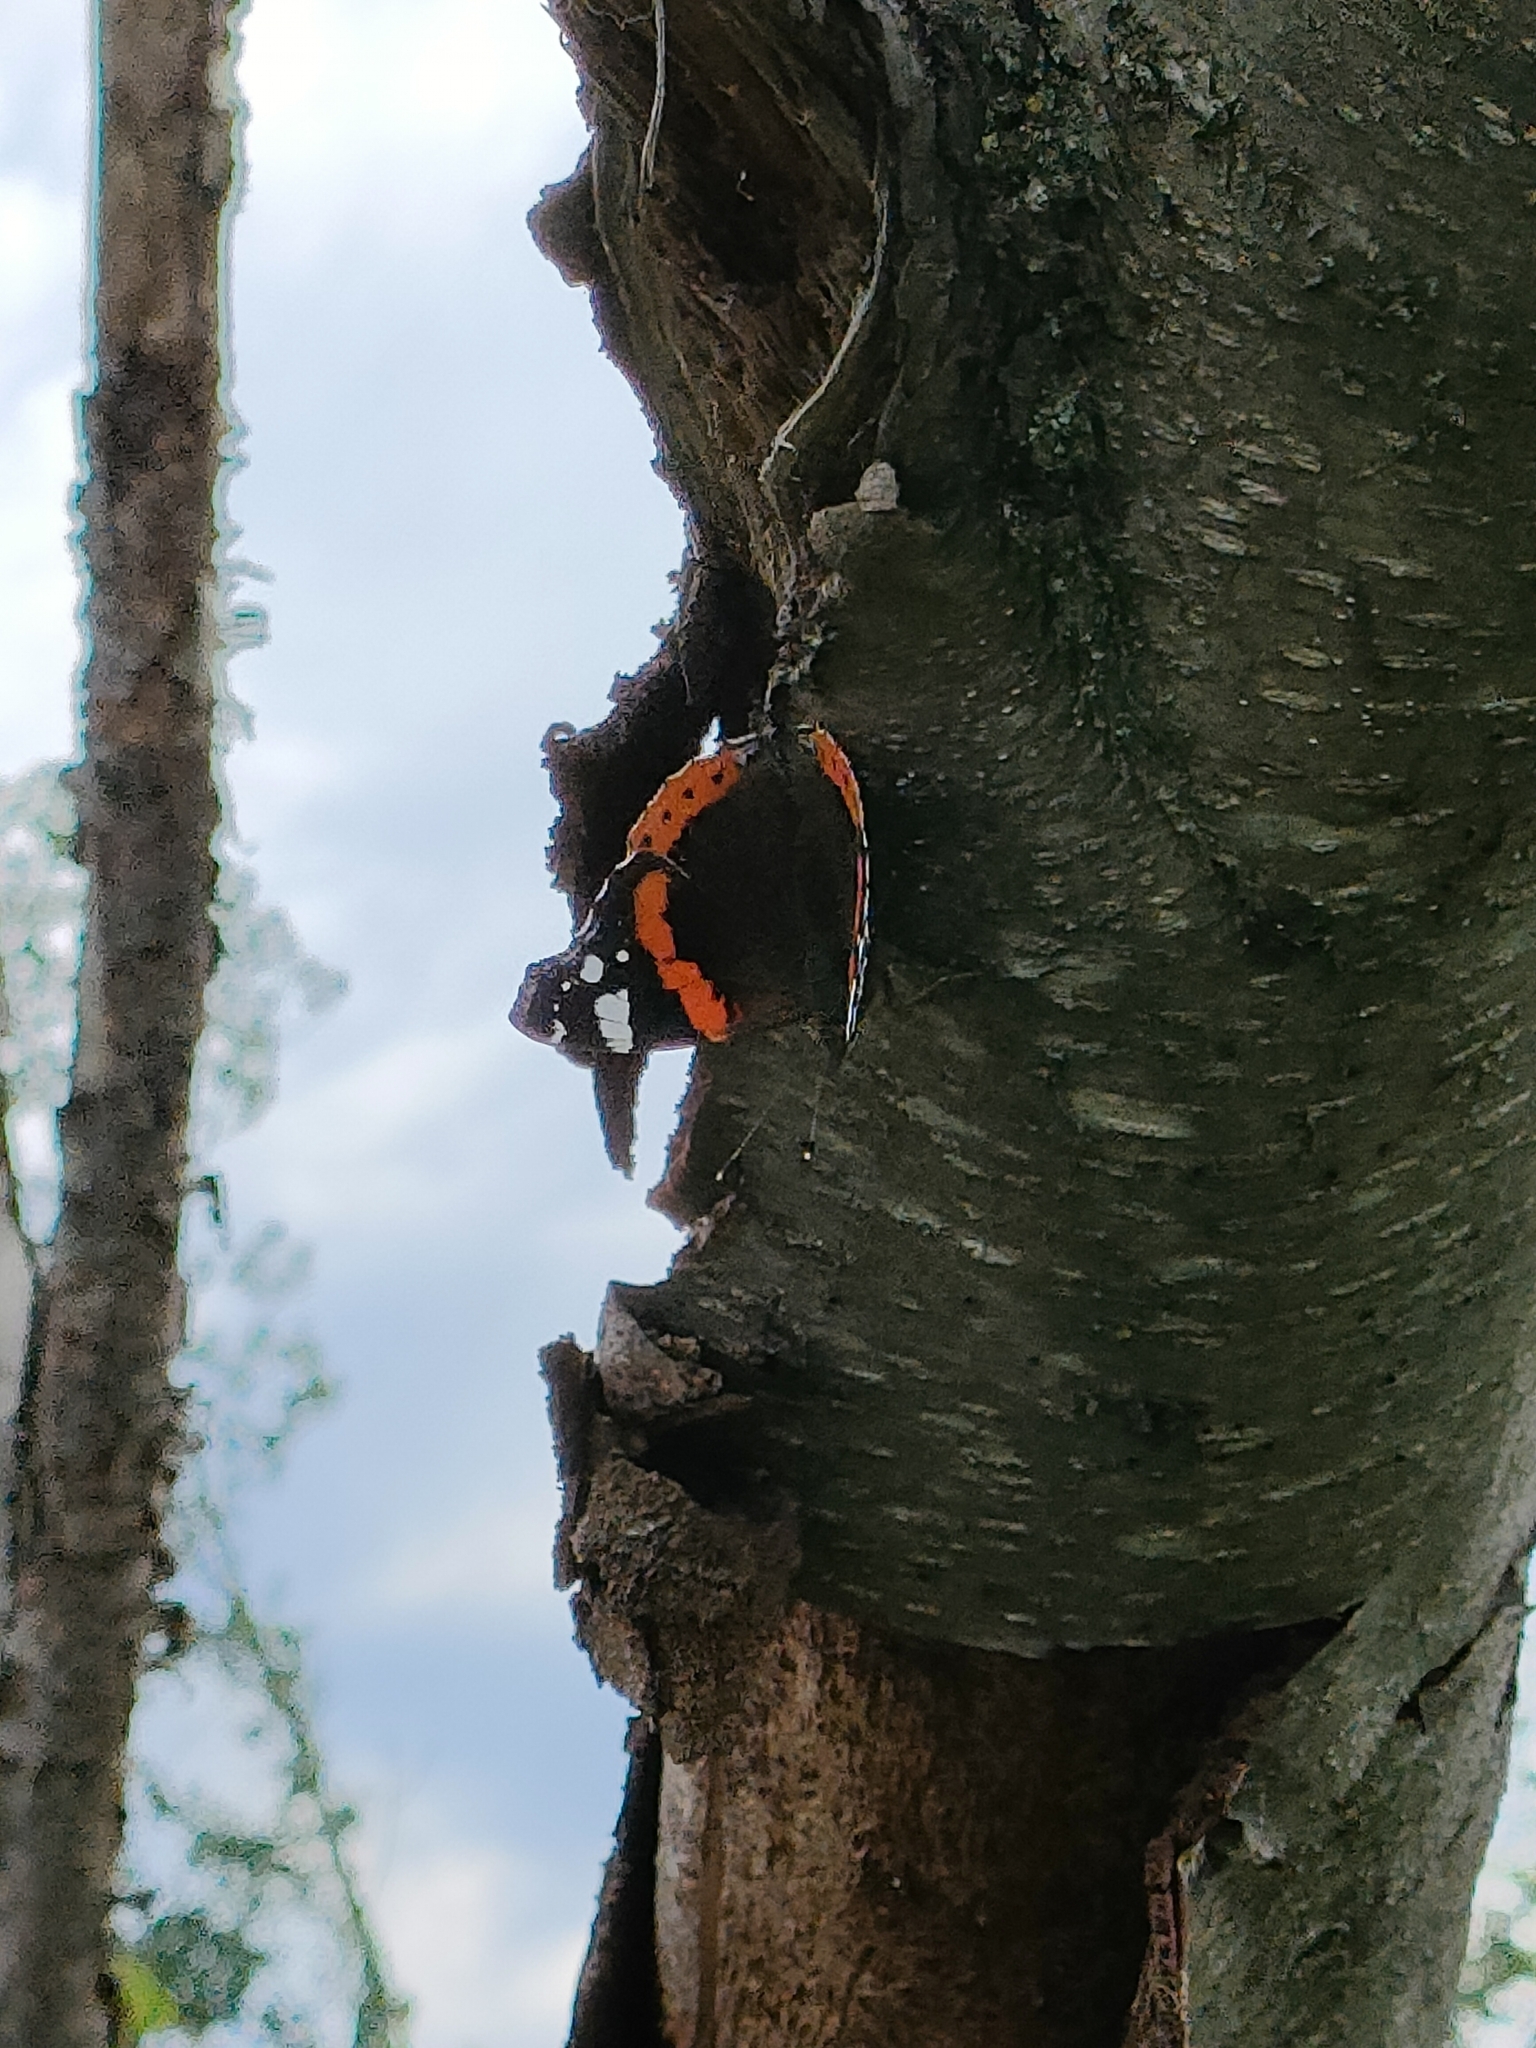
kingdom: Animalia
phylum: Arthropoda
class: Insecta
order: Lepidoptera
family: Nymphalidae
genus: Vanessa
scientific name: Vanessa atalanta
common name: Red admiral
